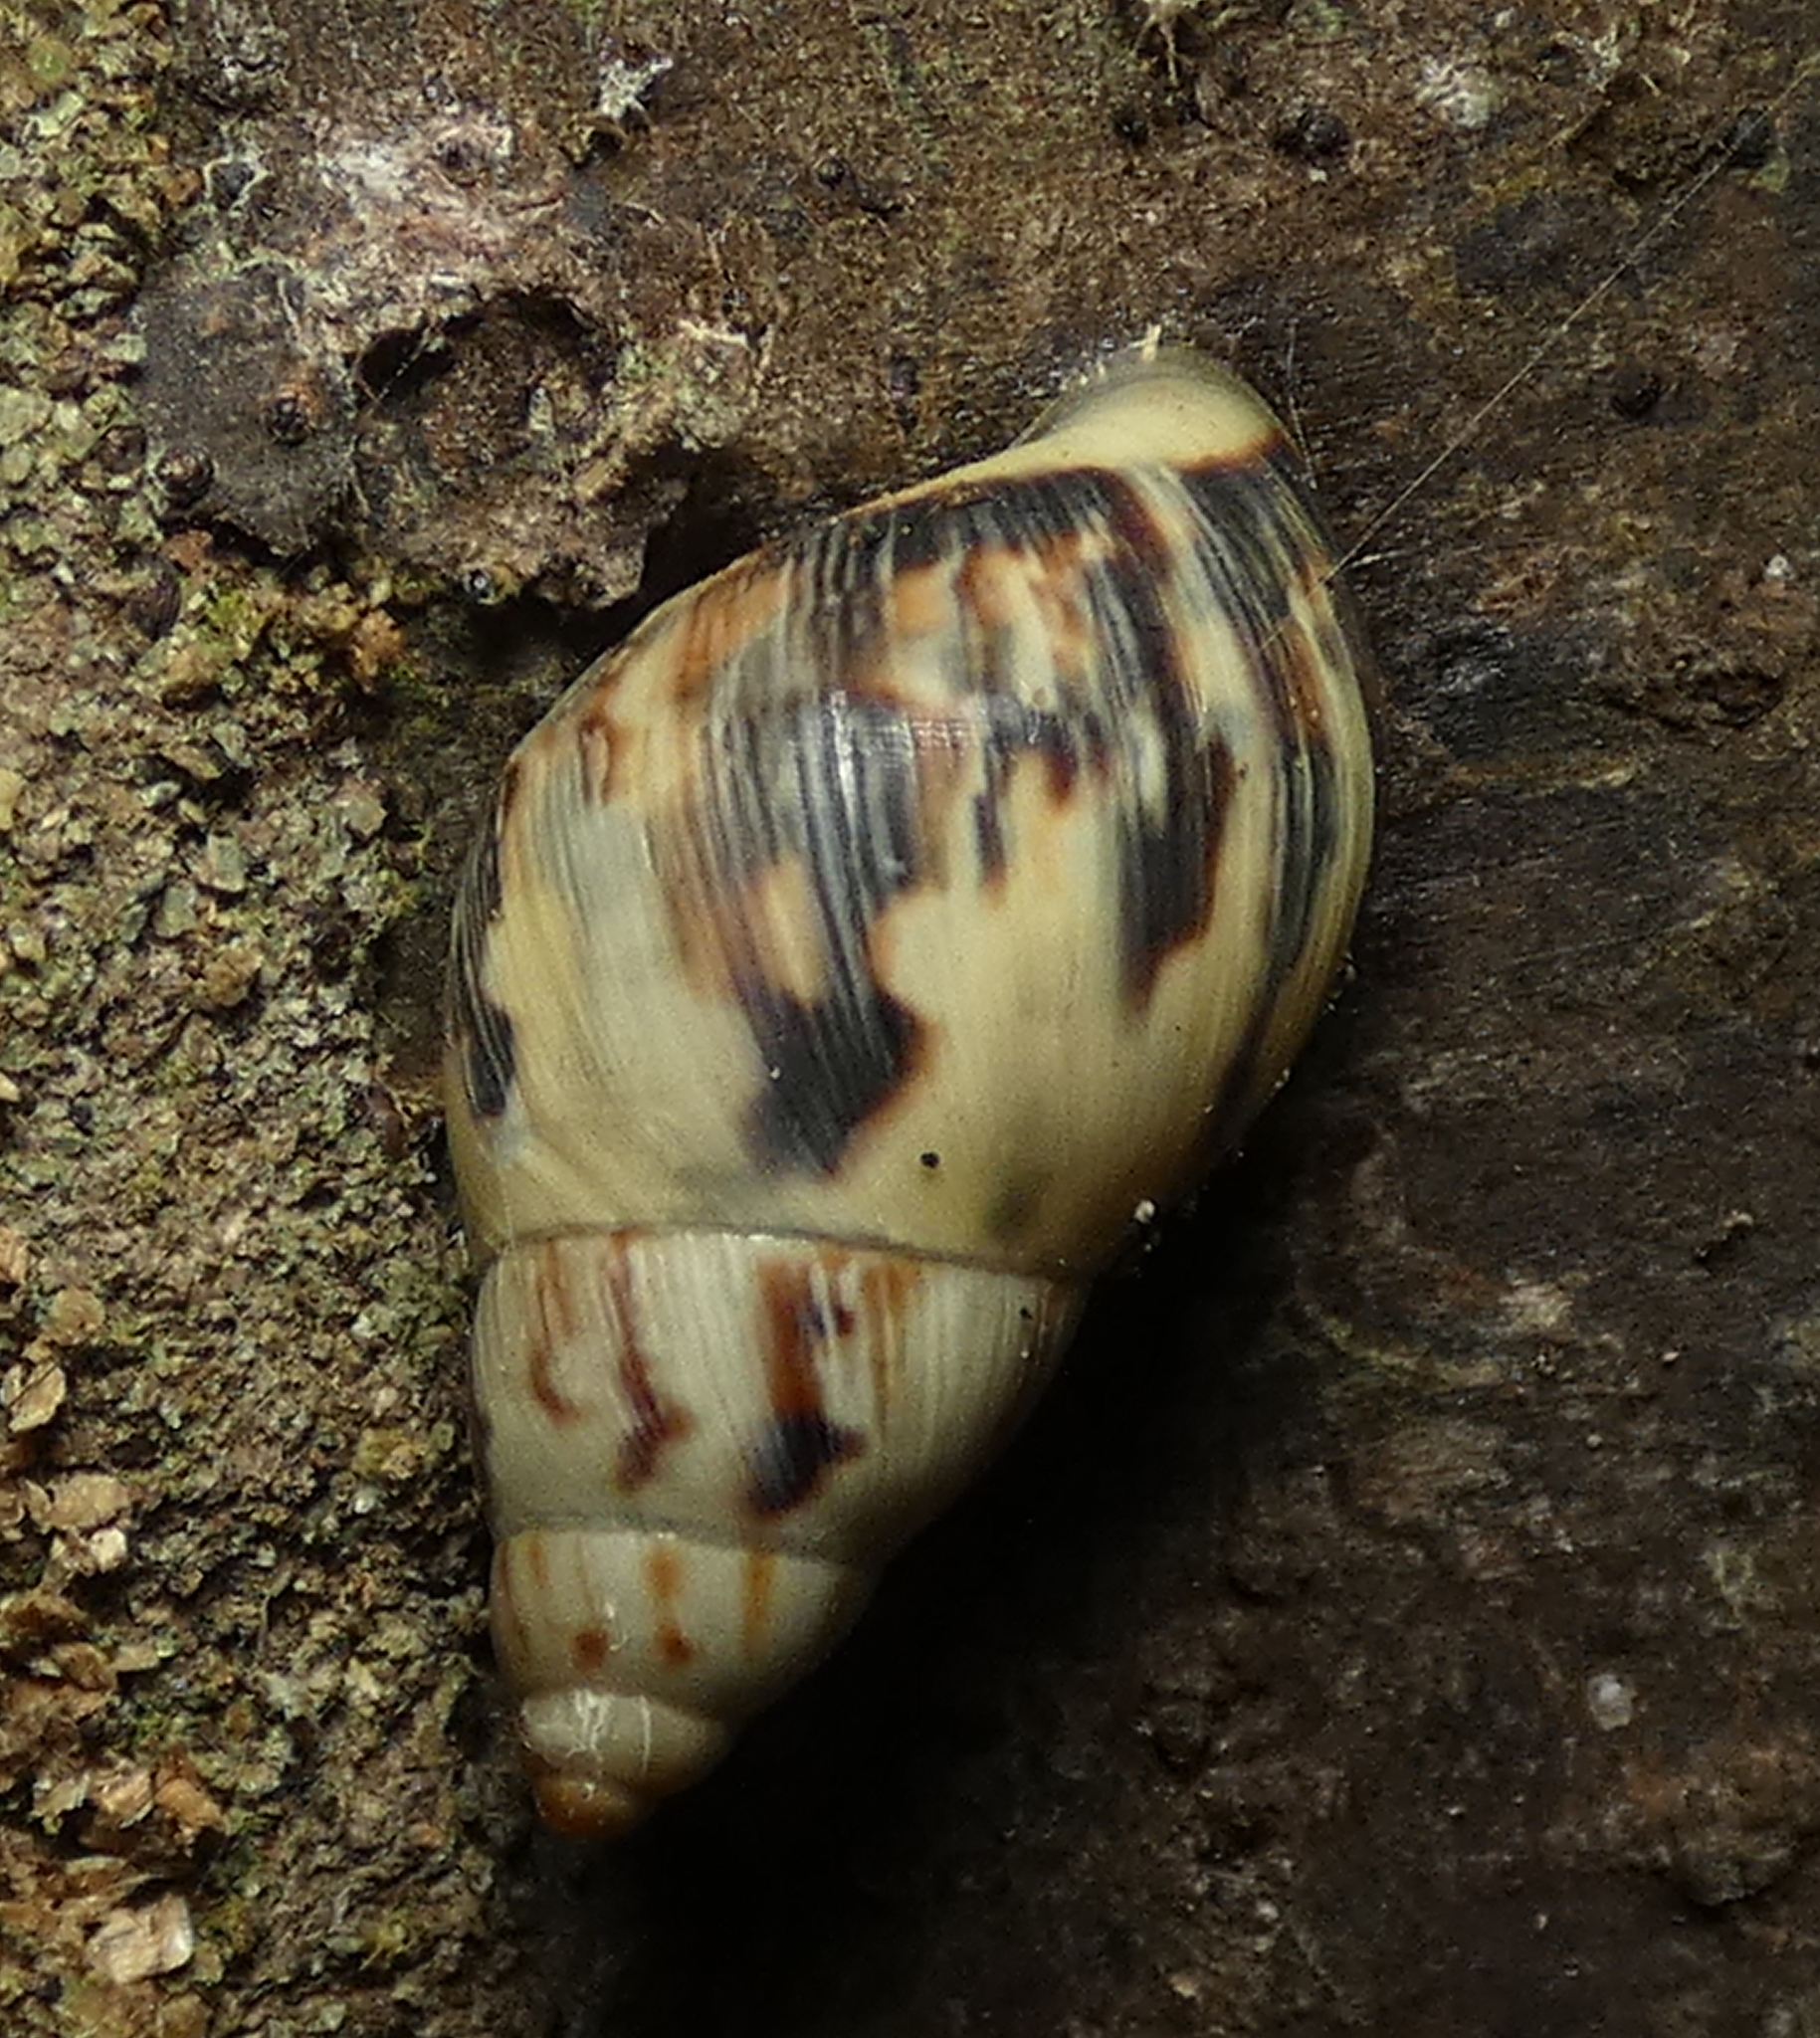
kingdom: Animalia
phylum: Mollusca
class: Gastropoda
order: Stylommatophora
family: Bulimulidae
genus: Drymaeus
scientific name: Drymaeus papyraceus
